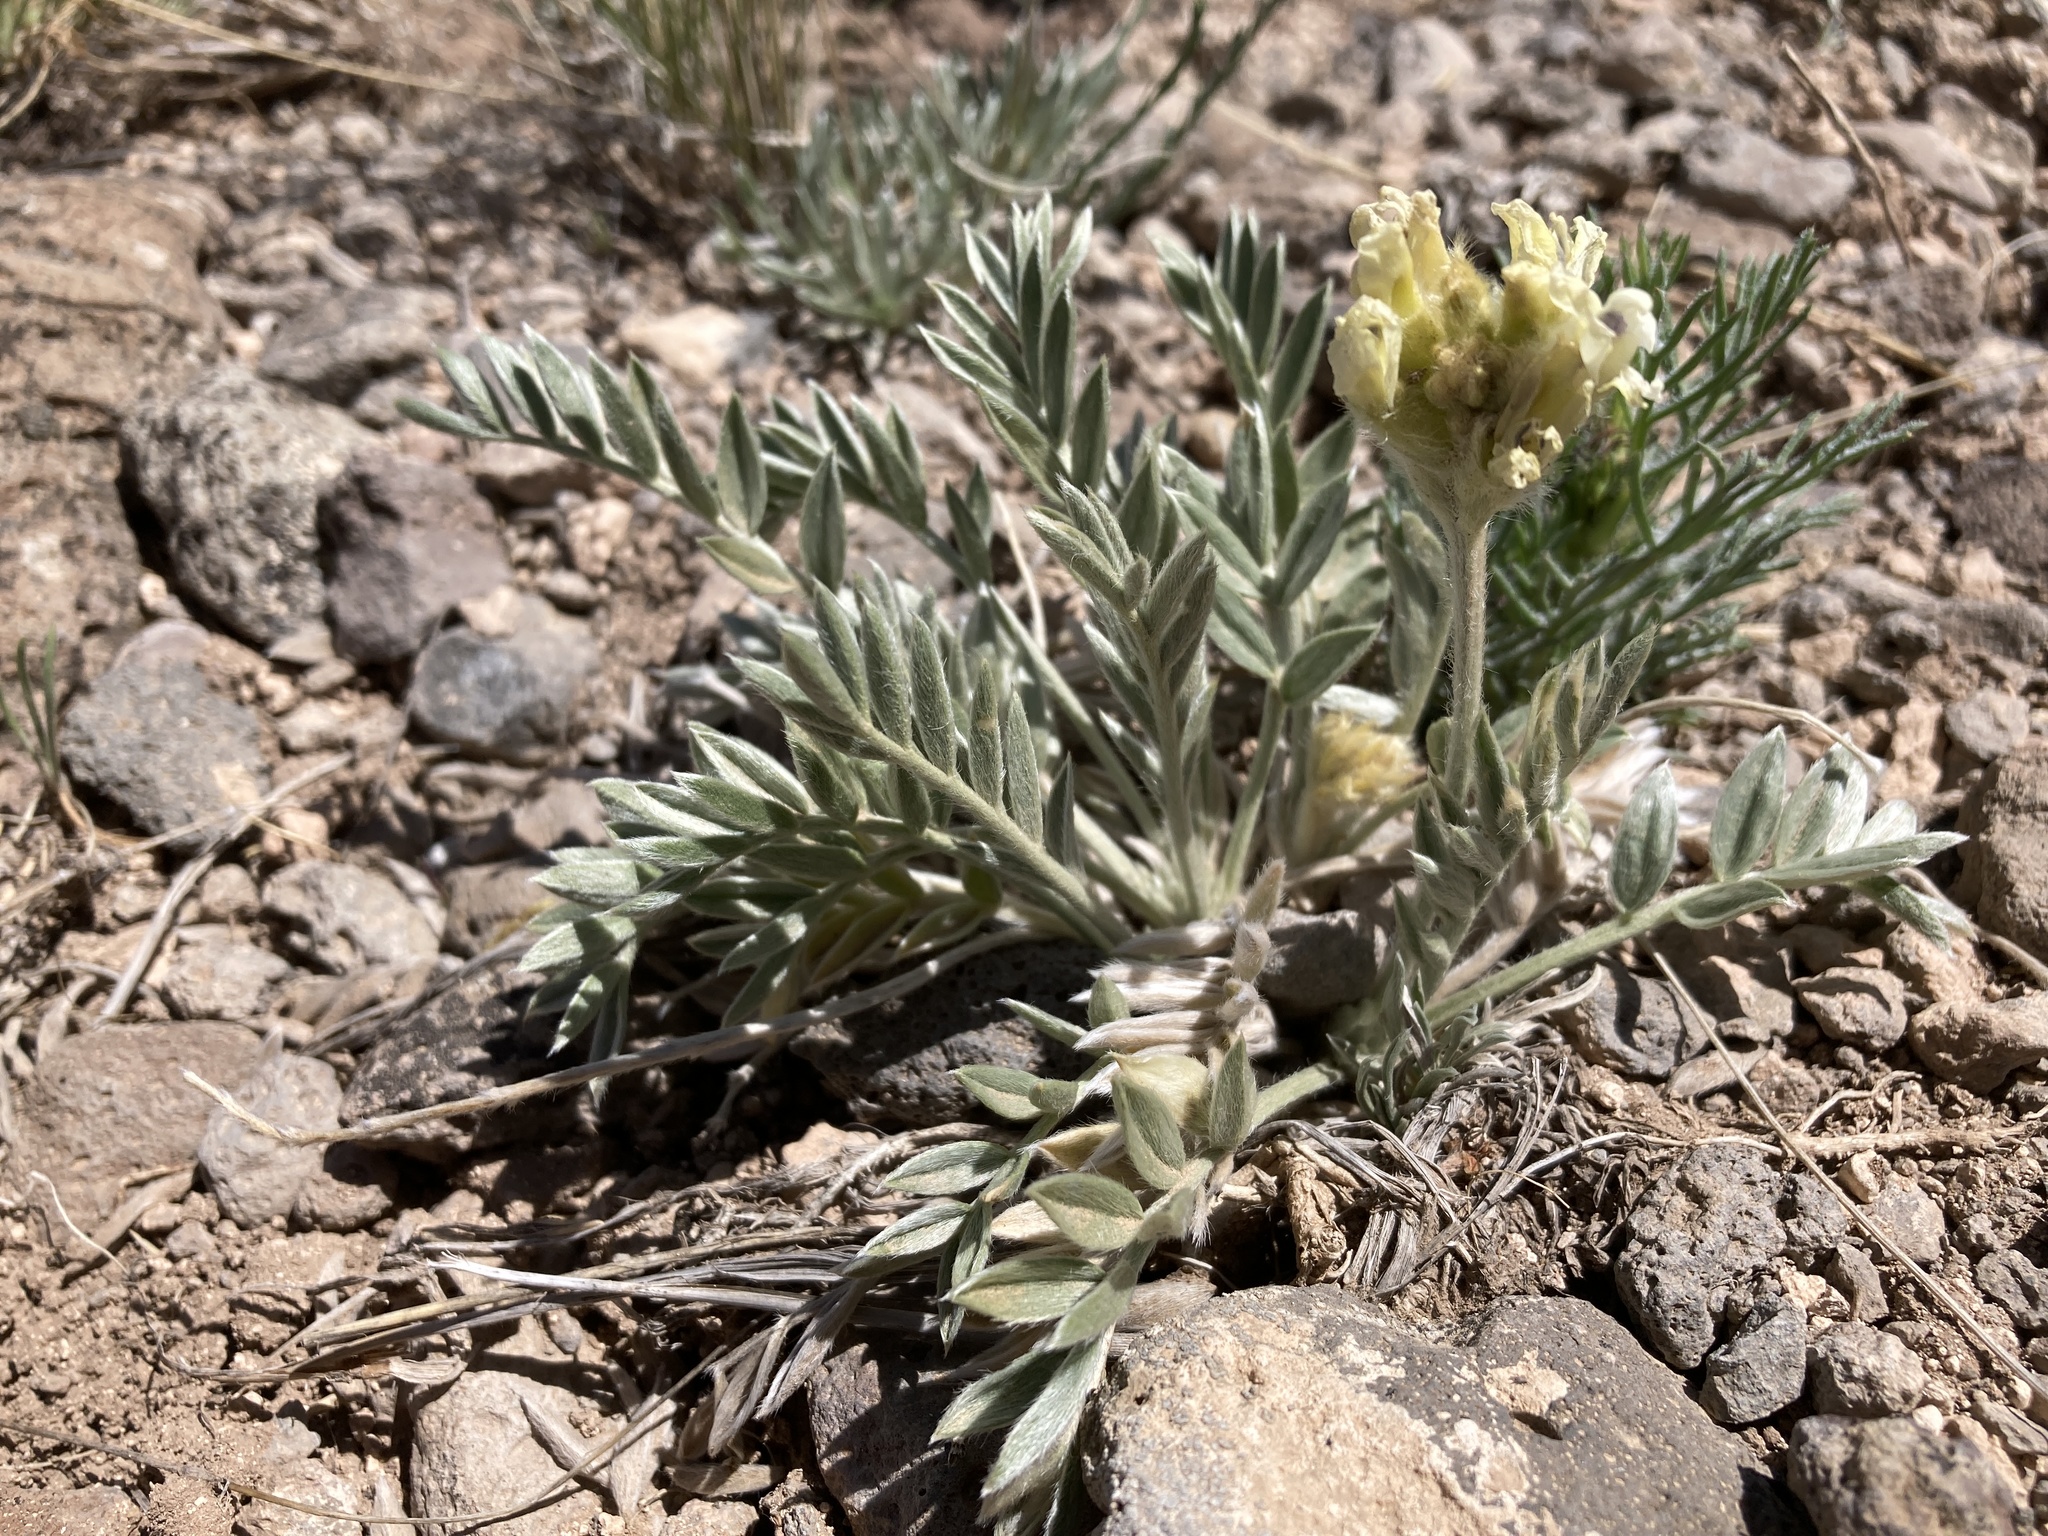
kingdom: Plantae
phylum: Tracheophyta
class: Magnoliopsida
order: Fabales
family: Fabaceae
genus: Oxytropis
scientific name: Oxytropis sericea
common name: Silky locoweed
